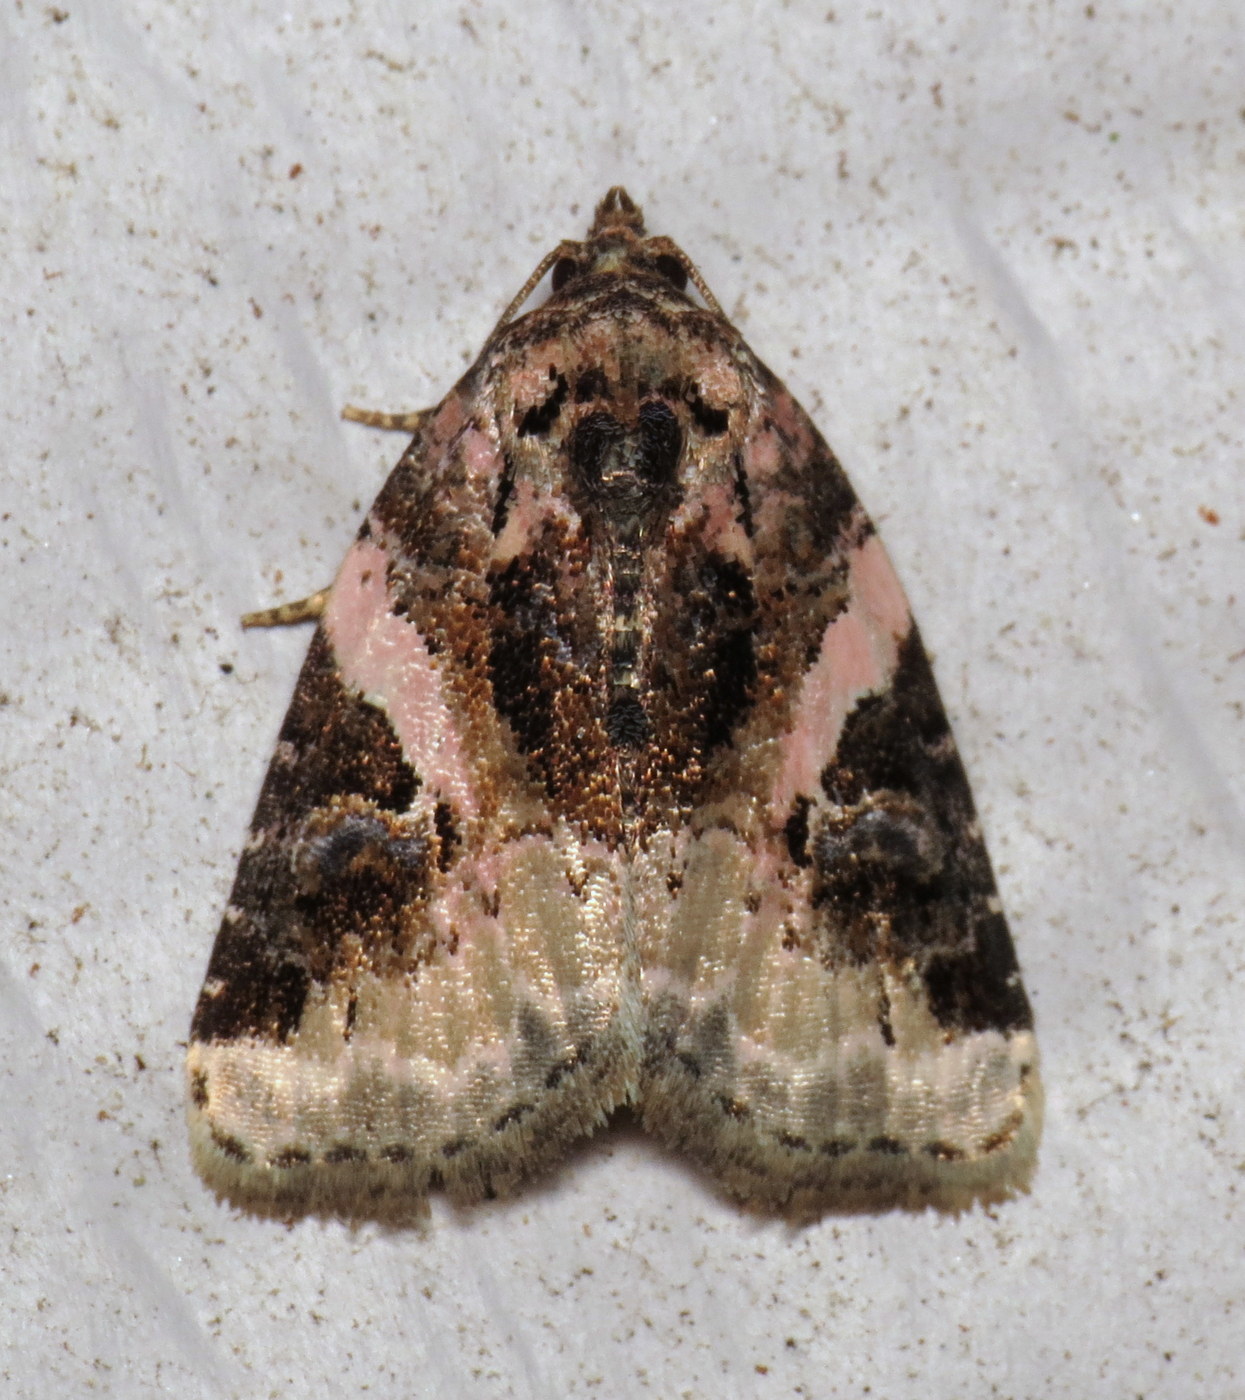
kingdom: Animalia
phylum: Arthropoda
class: Insecta
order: Lepidoptera
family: Noctuidae
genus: Pseudeustrotia
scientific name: Pseudeustrotia carneola
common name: Pink-barred lithacodia moth
